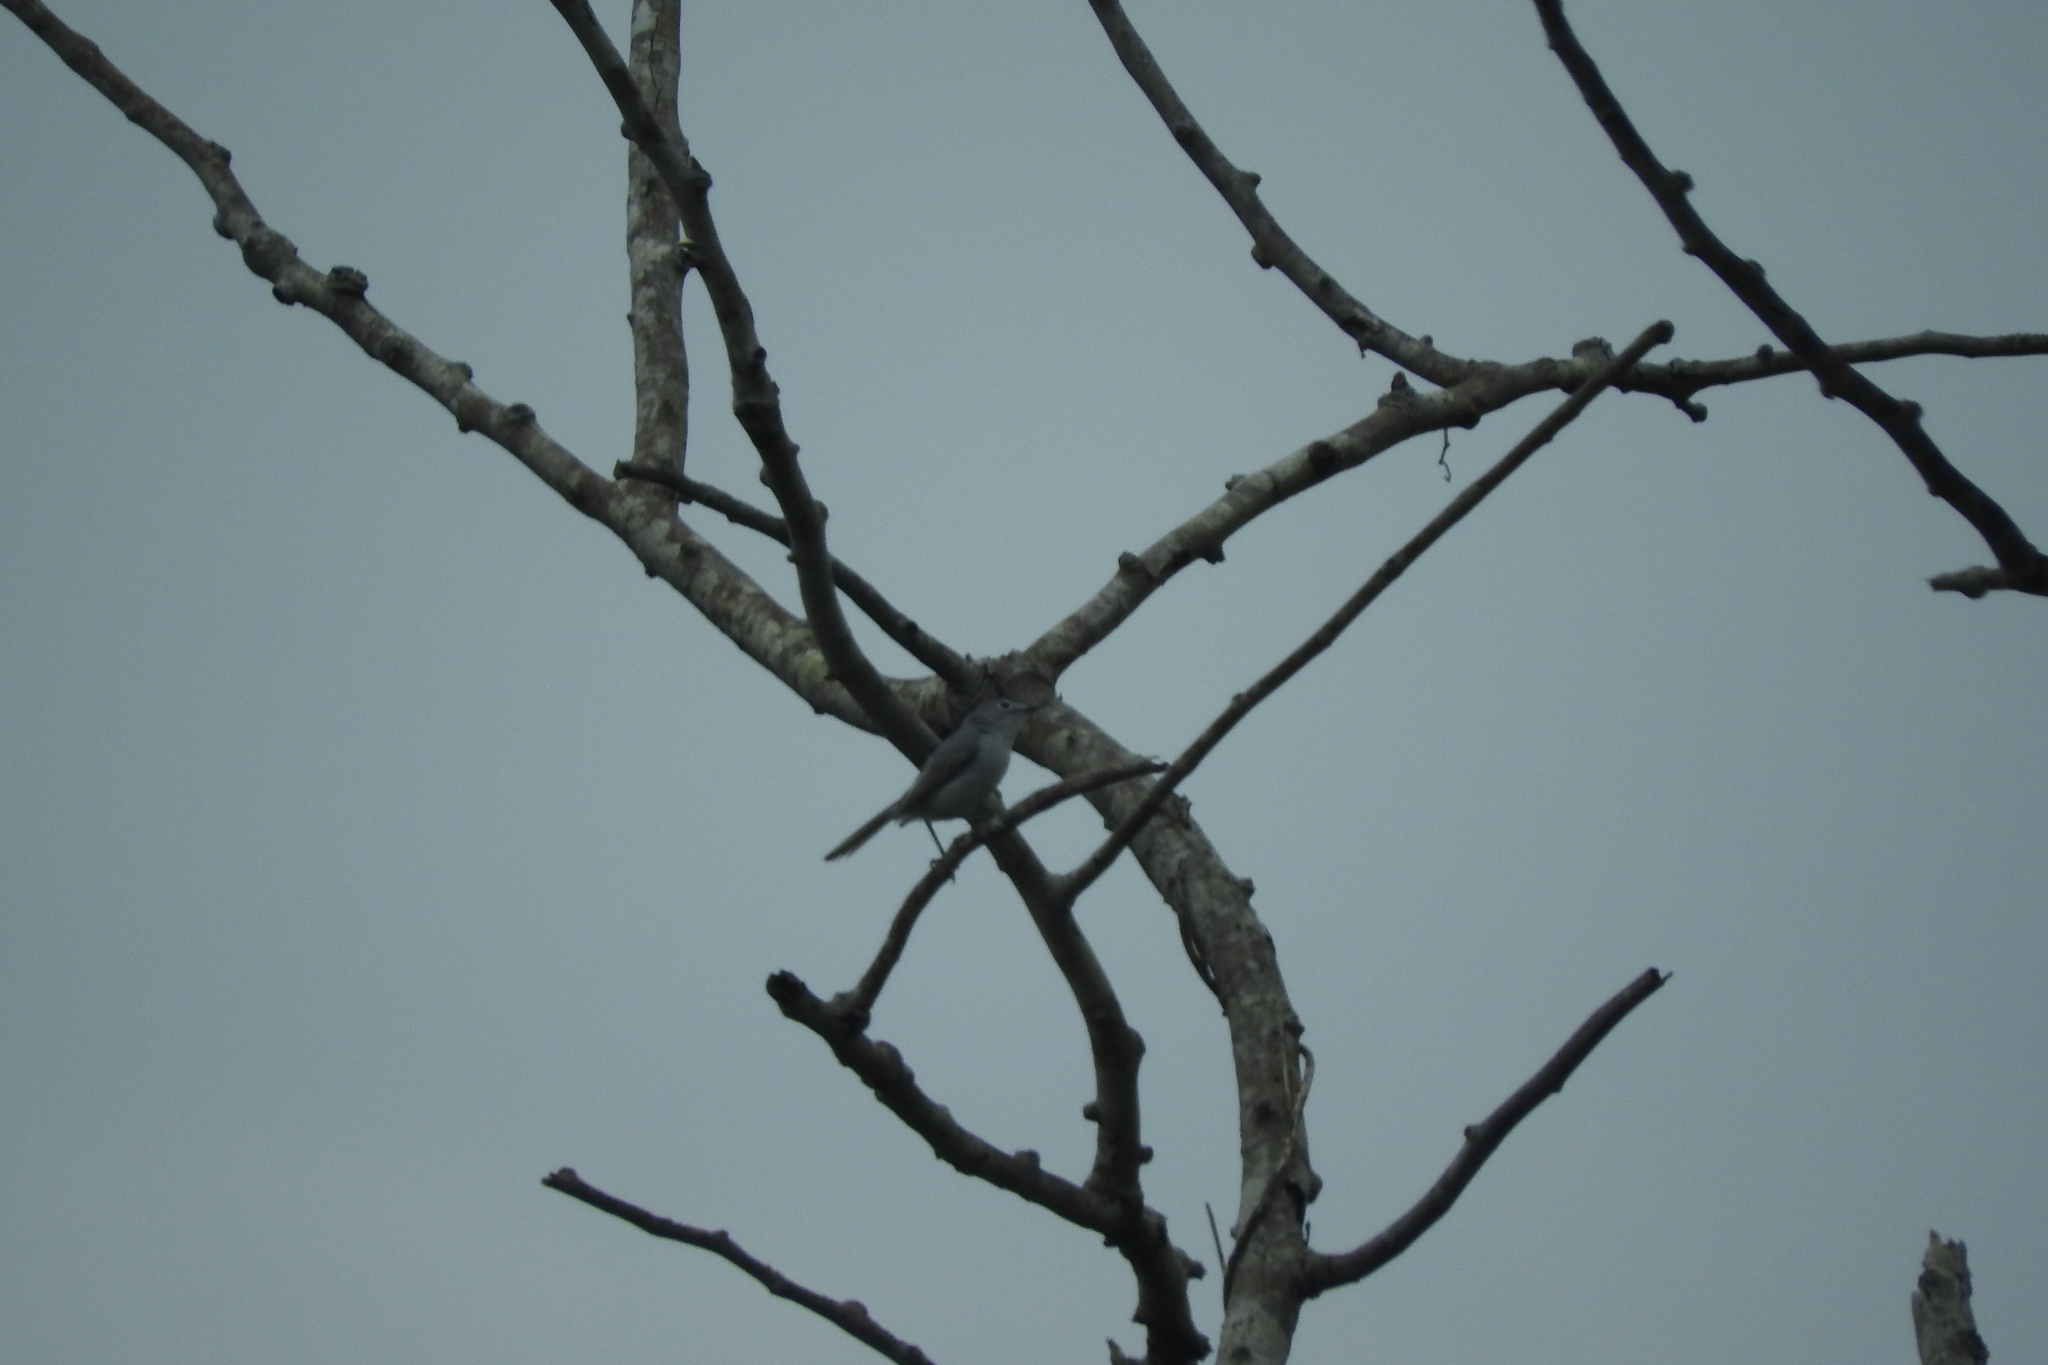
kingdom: Animalia
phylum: Chordata
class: Aves
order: Passeriformes
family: Polioptilidae
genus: Polioptila
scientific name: Polioptila caerulea
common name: Blue-gray gnatcatcher
